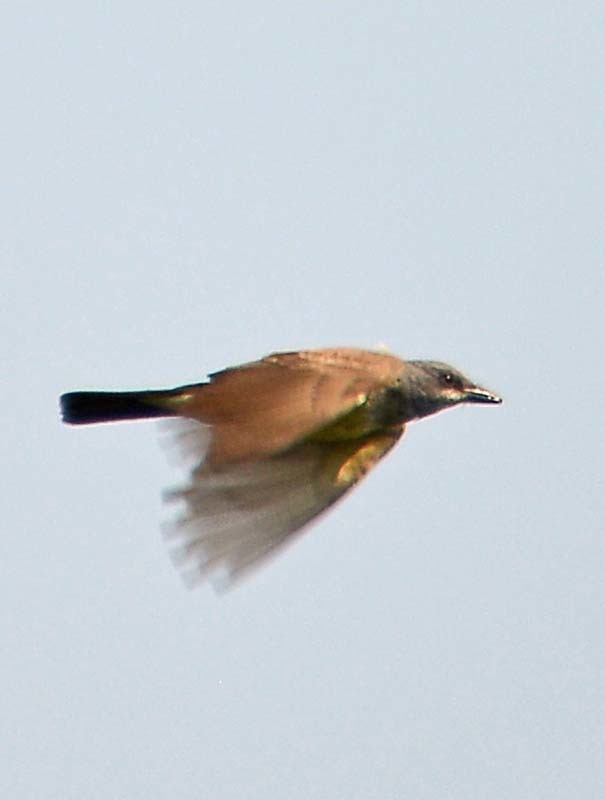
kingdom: Animalia
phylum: Chordata
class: Aves
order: Passeriformes
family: Tyrannidae
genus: Tyrannus
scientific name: Tyrannus vociferans
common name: Cassin's kingbird
